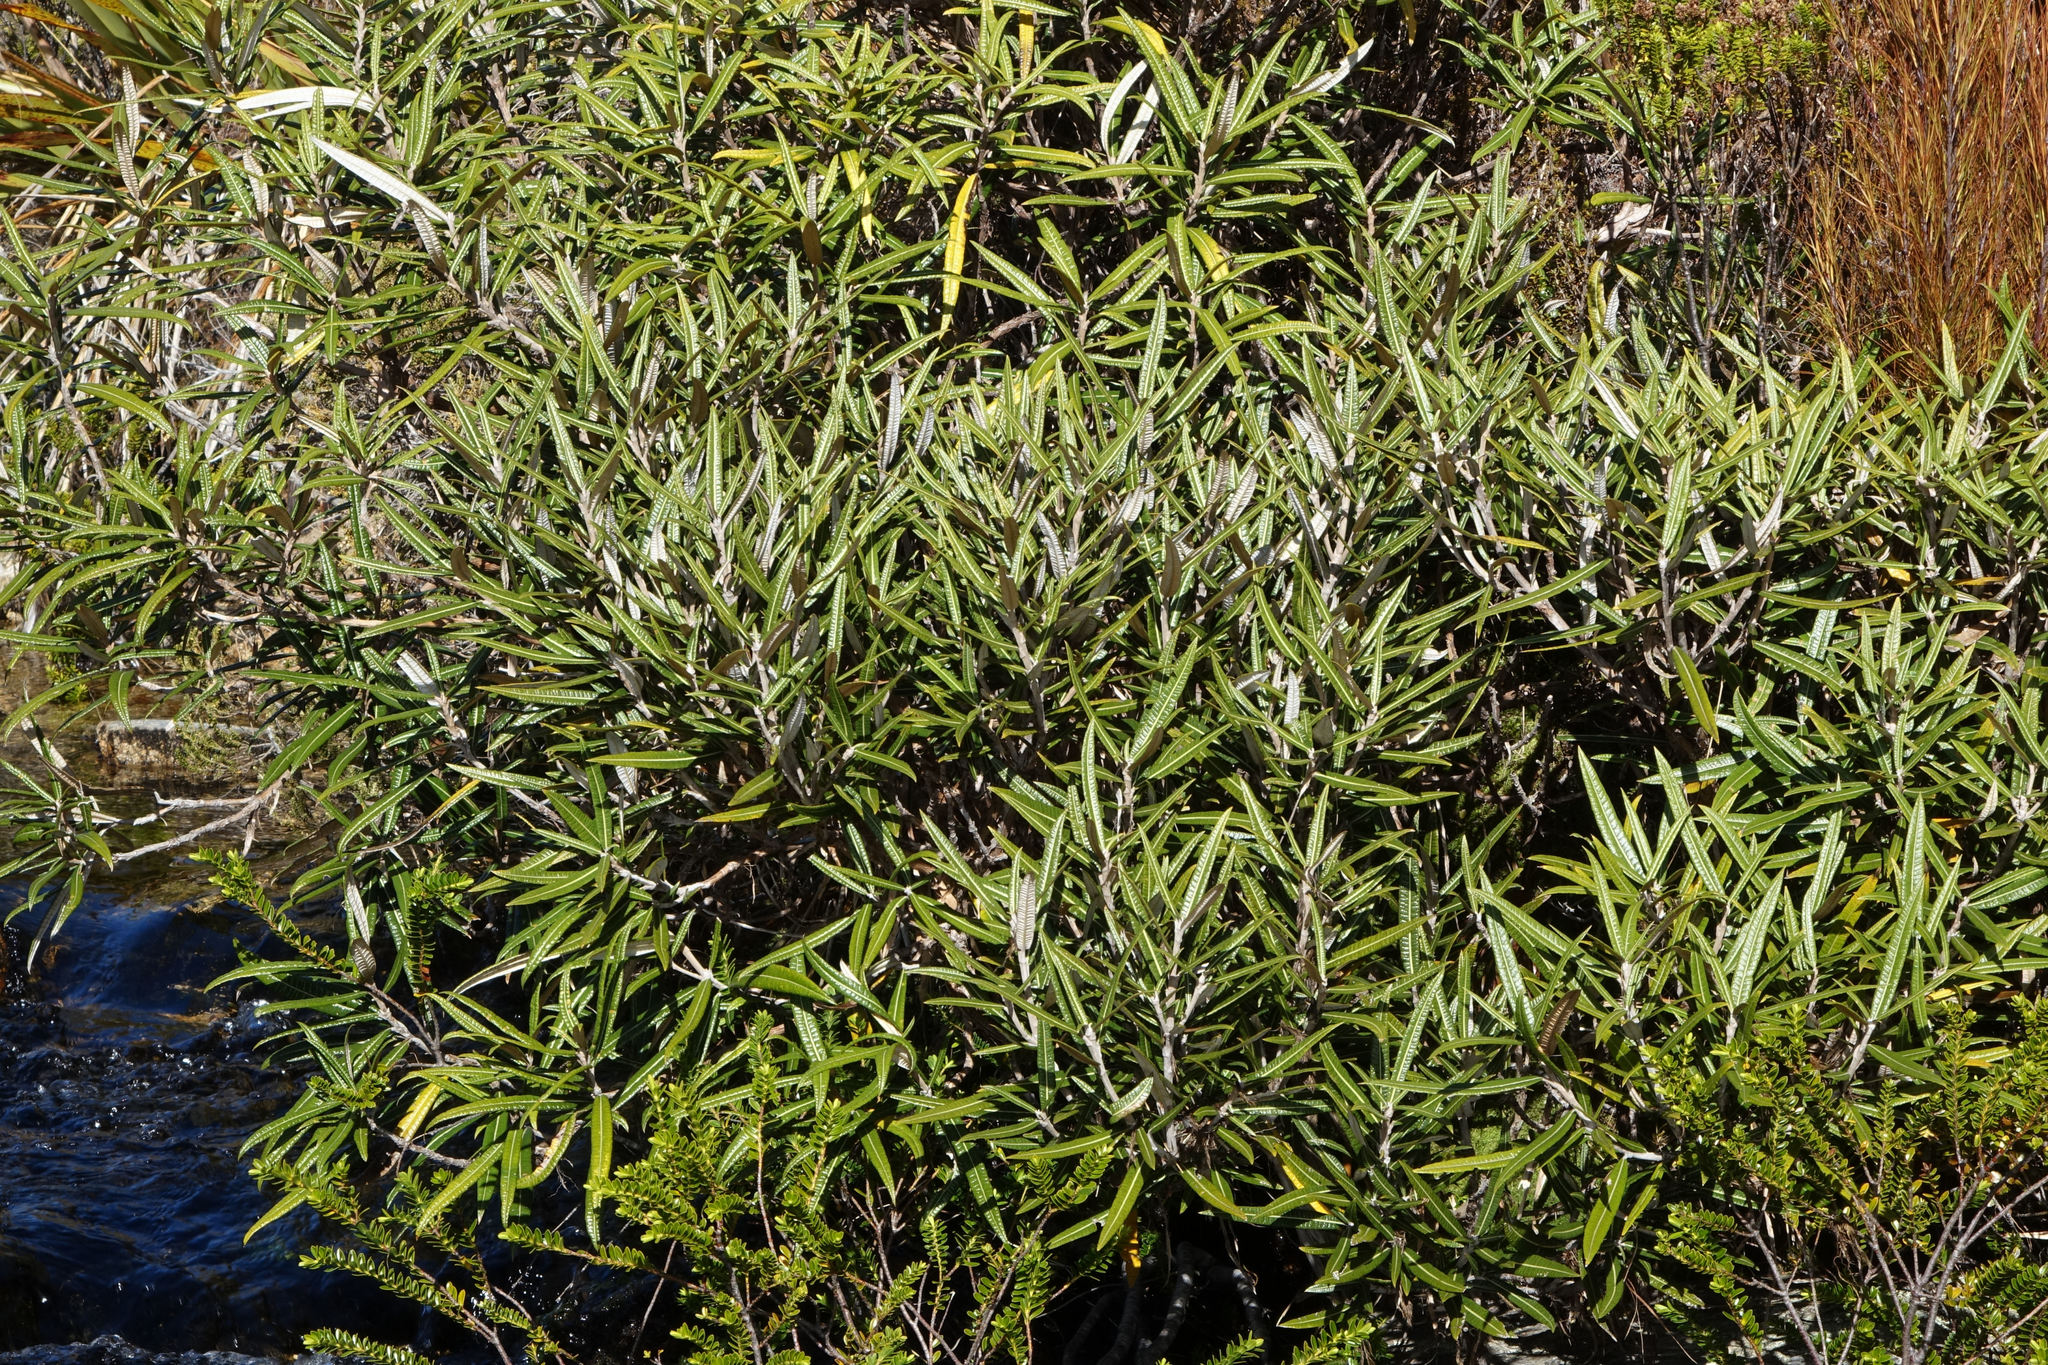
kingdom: Plantae
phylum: Tracheophyta
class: Magnoliopsida
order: Asterales
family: Asteraceae
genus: Olearia
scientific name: Olearia lacunosa
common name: Lancewood tree daisy
